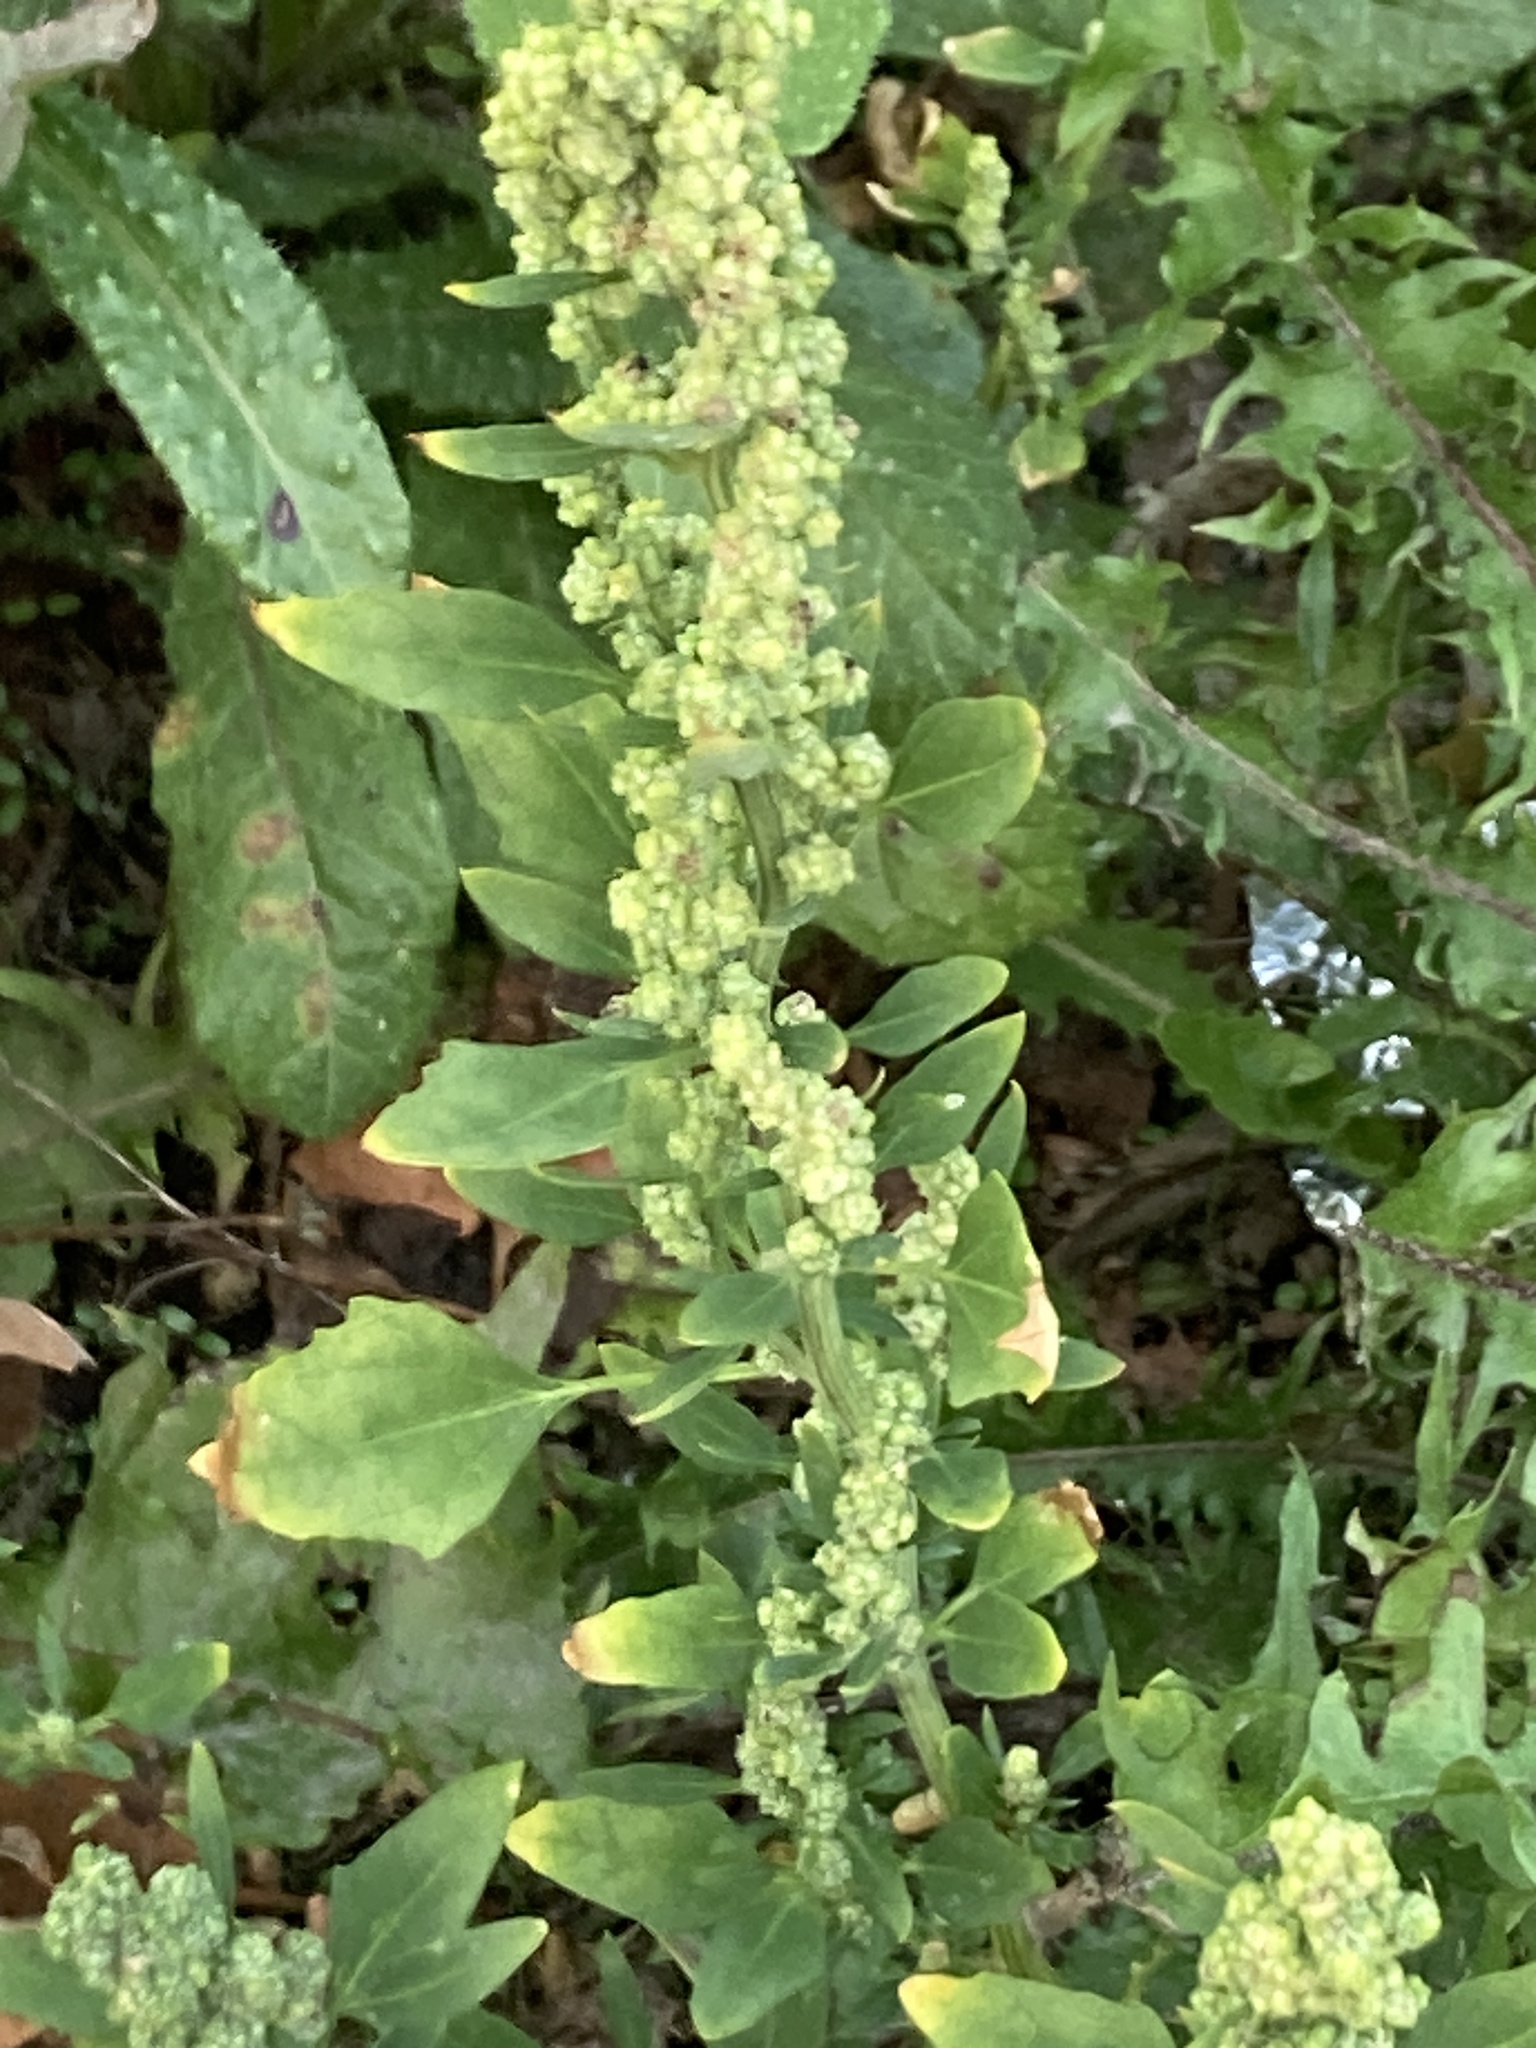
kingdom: Plantae
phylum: Tracheophyta
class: Magnoliopsida
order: Caryophyllales
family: Amaranthaceae
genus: Chenopodium
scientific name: Chenopodium album
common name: Fat-hen
